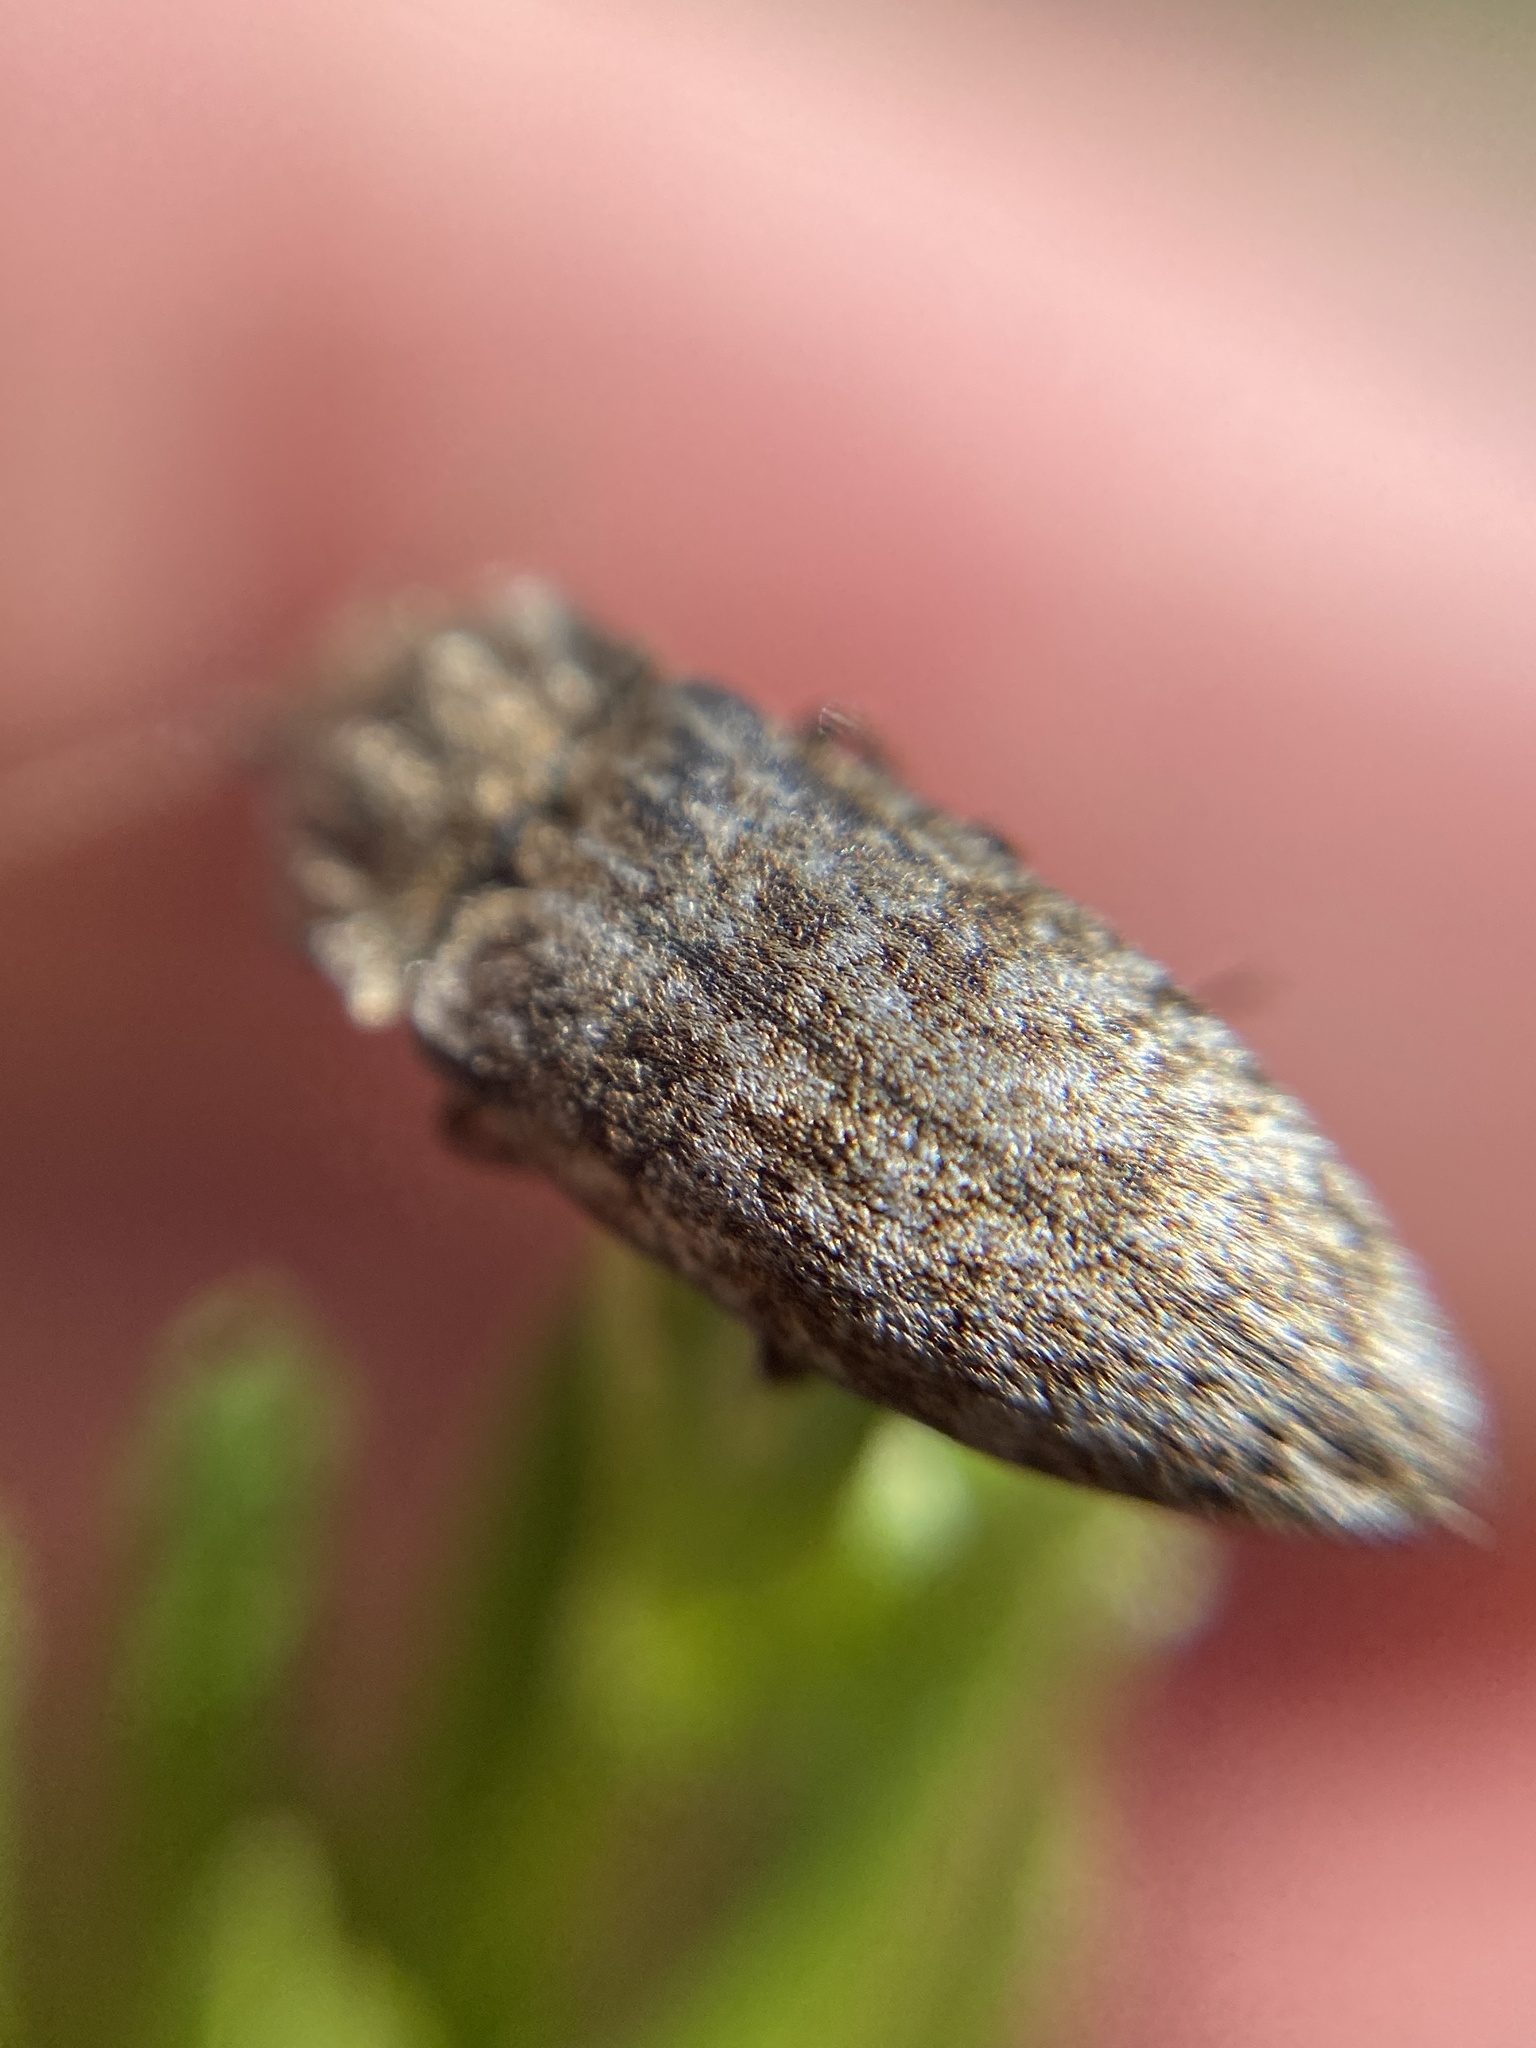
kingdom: Animalia
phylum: Arthropoda
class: Insecta
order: Coleoptera
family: Elateridae
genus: Agrypnus
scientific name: Agrypnus murinus
